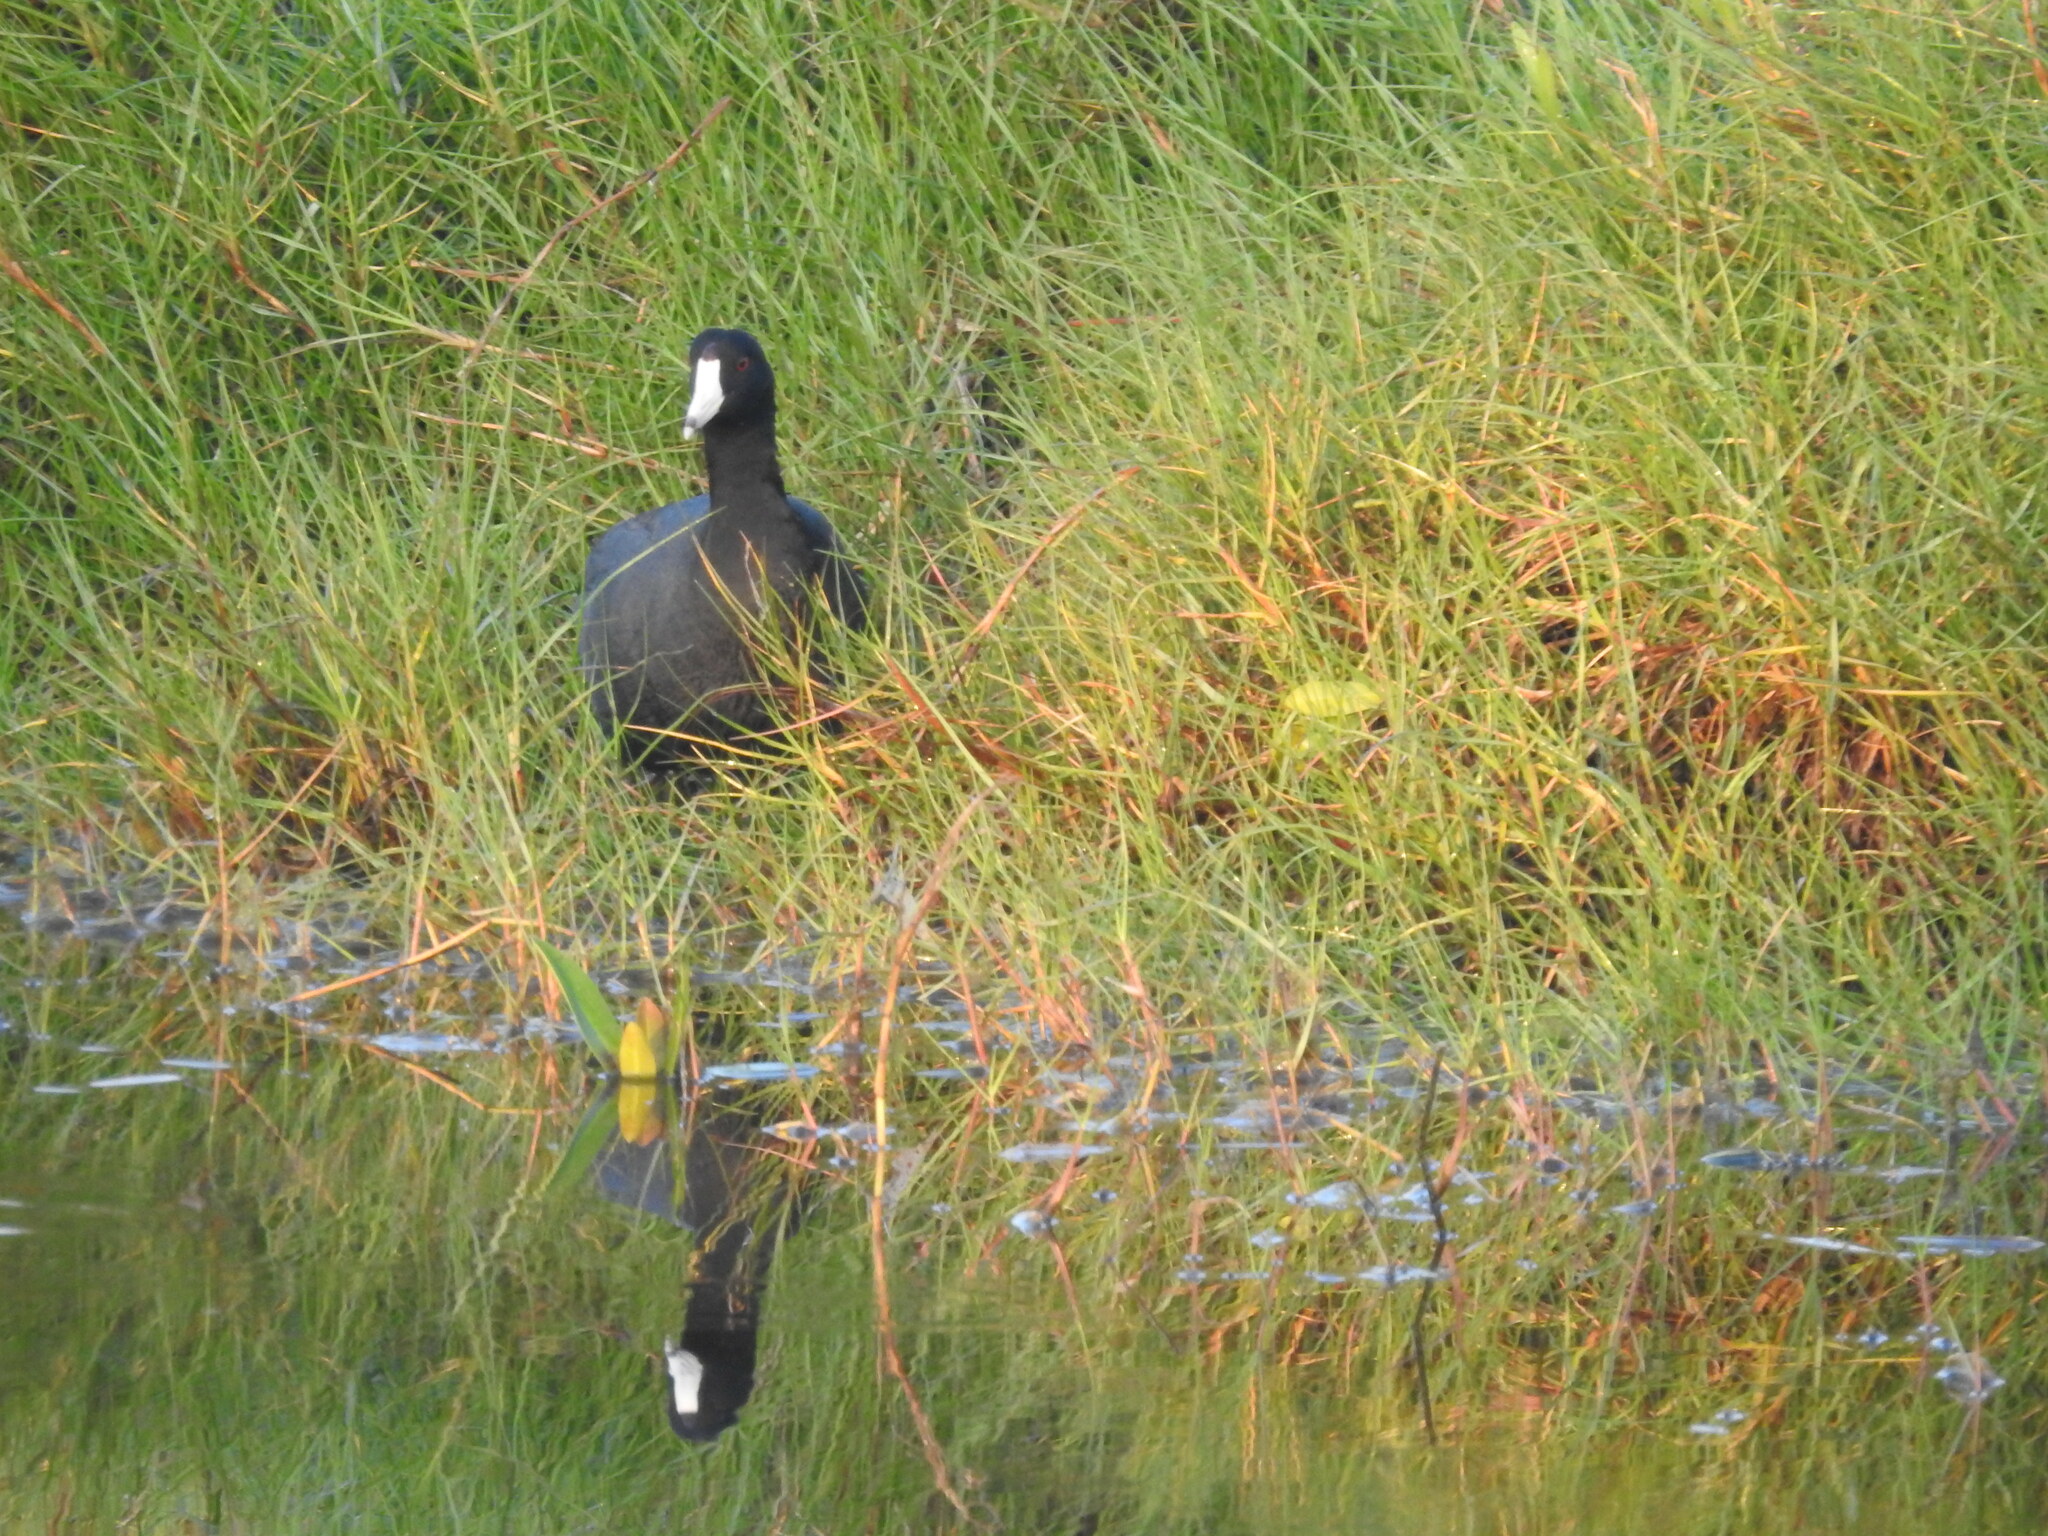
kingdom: Animalia
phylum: Chordata
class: Aves
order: Gruiformes
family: Rallidae
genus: Fulica
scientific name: Fulica americana
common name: American coot
